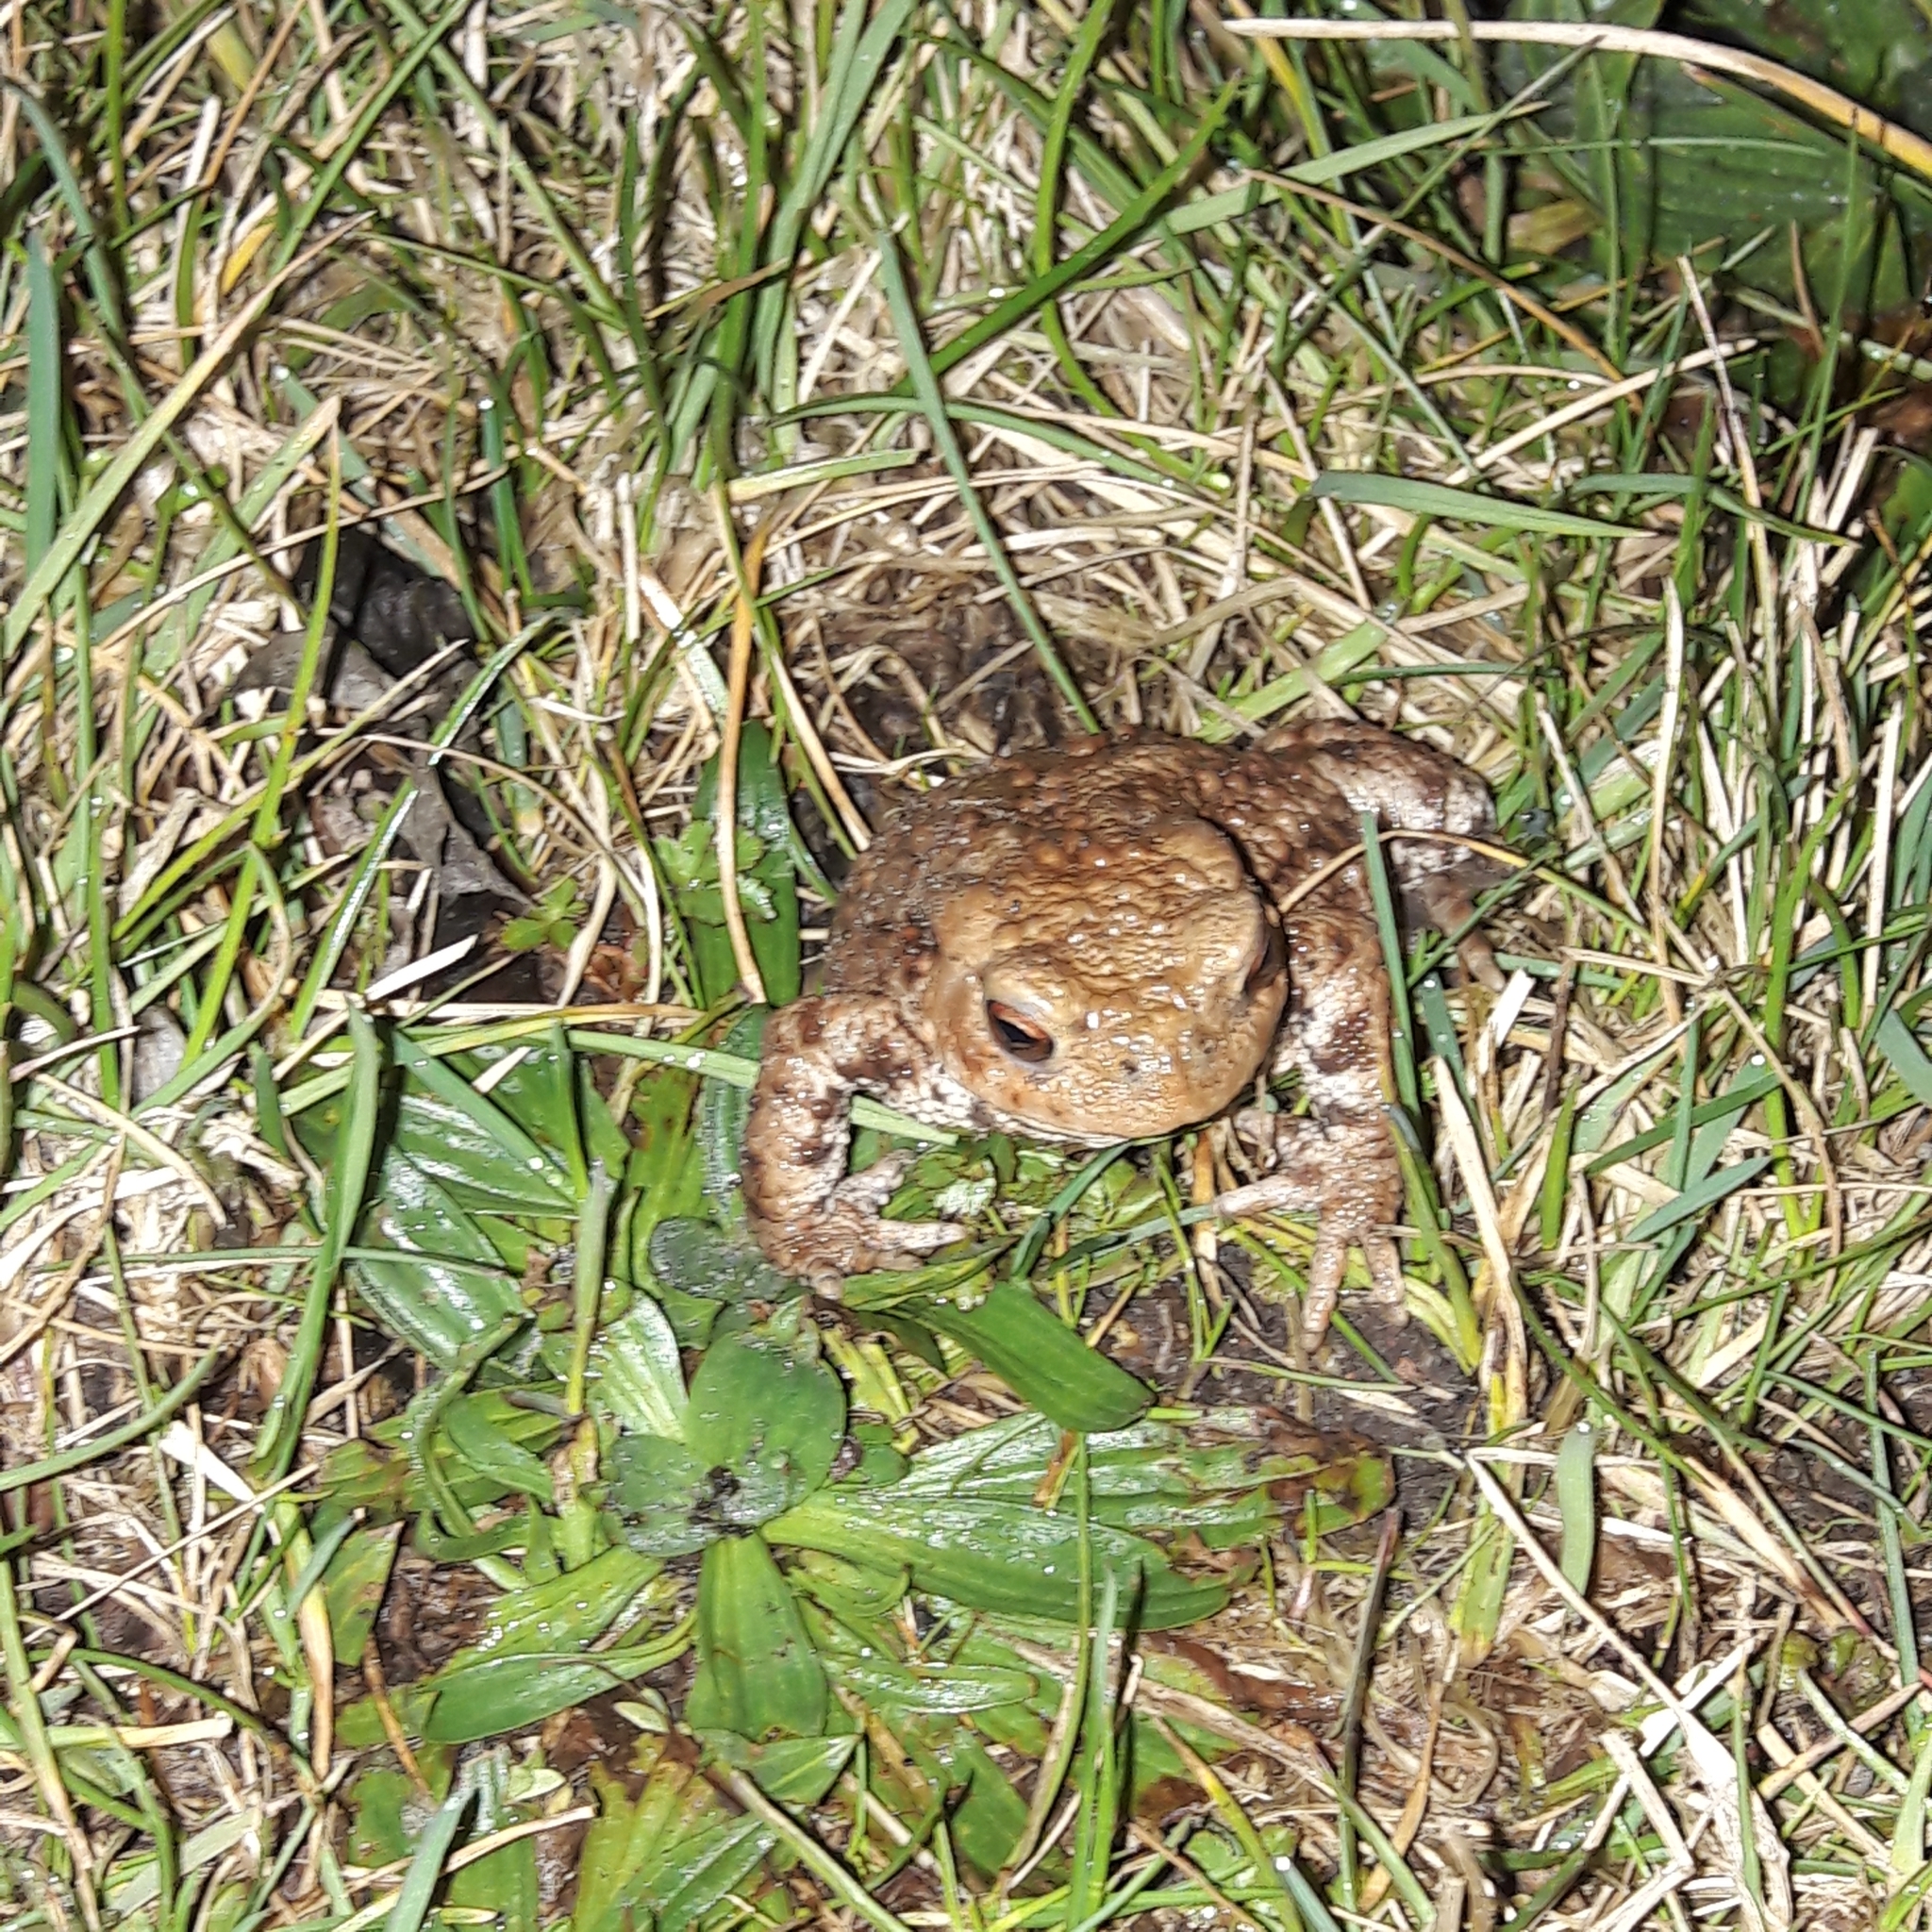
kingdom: Animalia
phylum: Chordata
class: Amphibia
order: Anura
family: Bufonidae
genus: Bufo
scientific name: Bufo bufo
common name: Common toad
